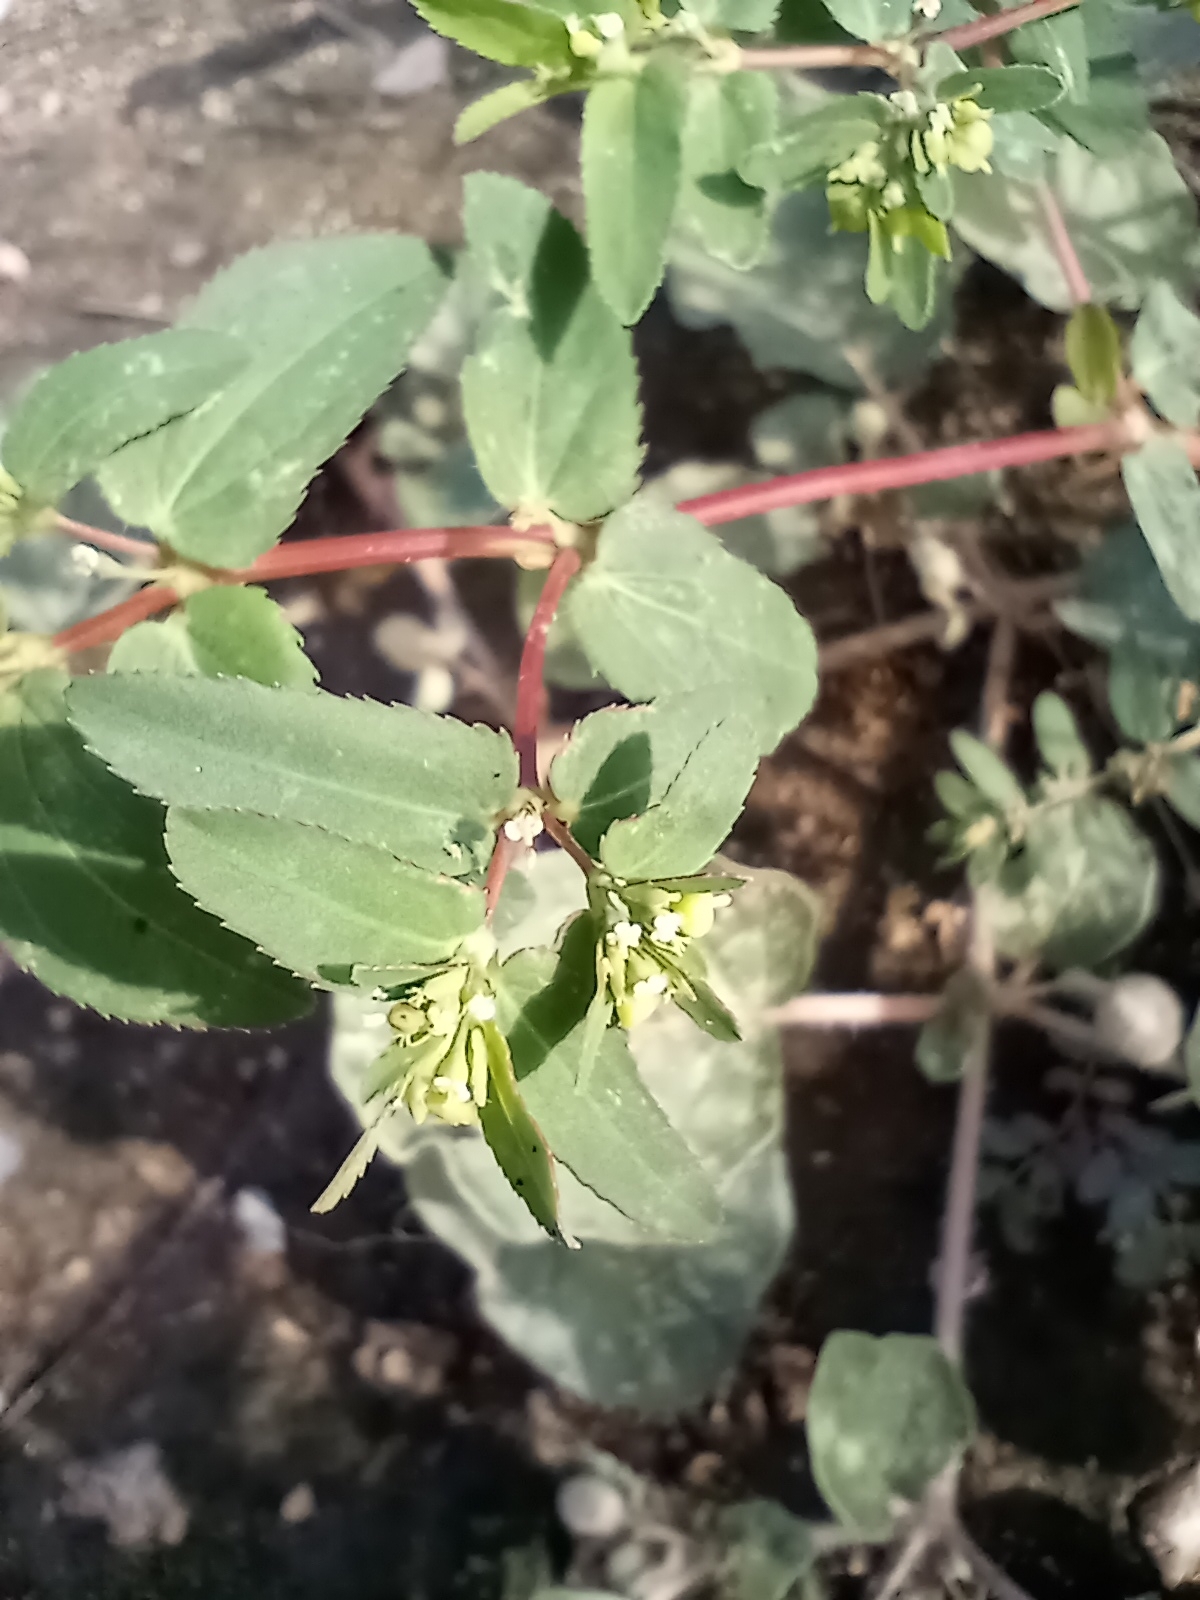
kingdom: Plantae
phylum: Tracheophyta
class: Magnoliopsida
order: Malpighiales
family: Euphorbiaceae
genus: Euphorbia
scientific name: Euphorbia hyssopifolia
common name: Hyssopleaf sandmat
